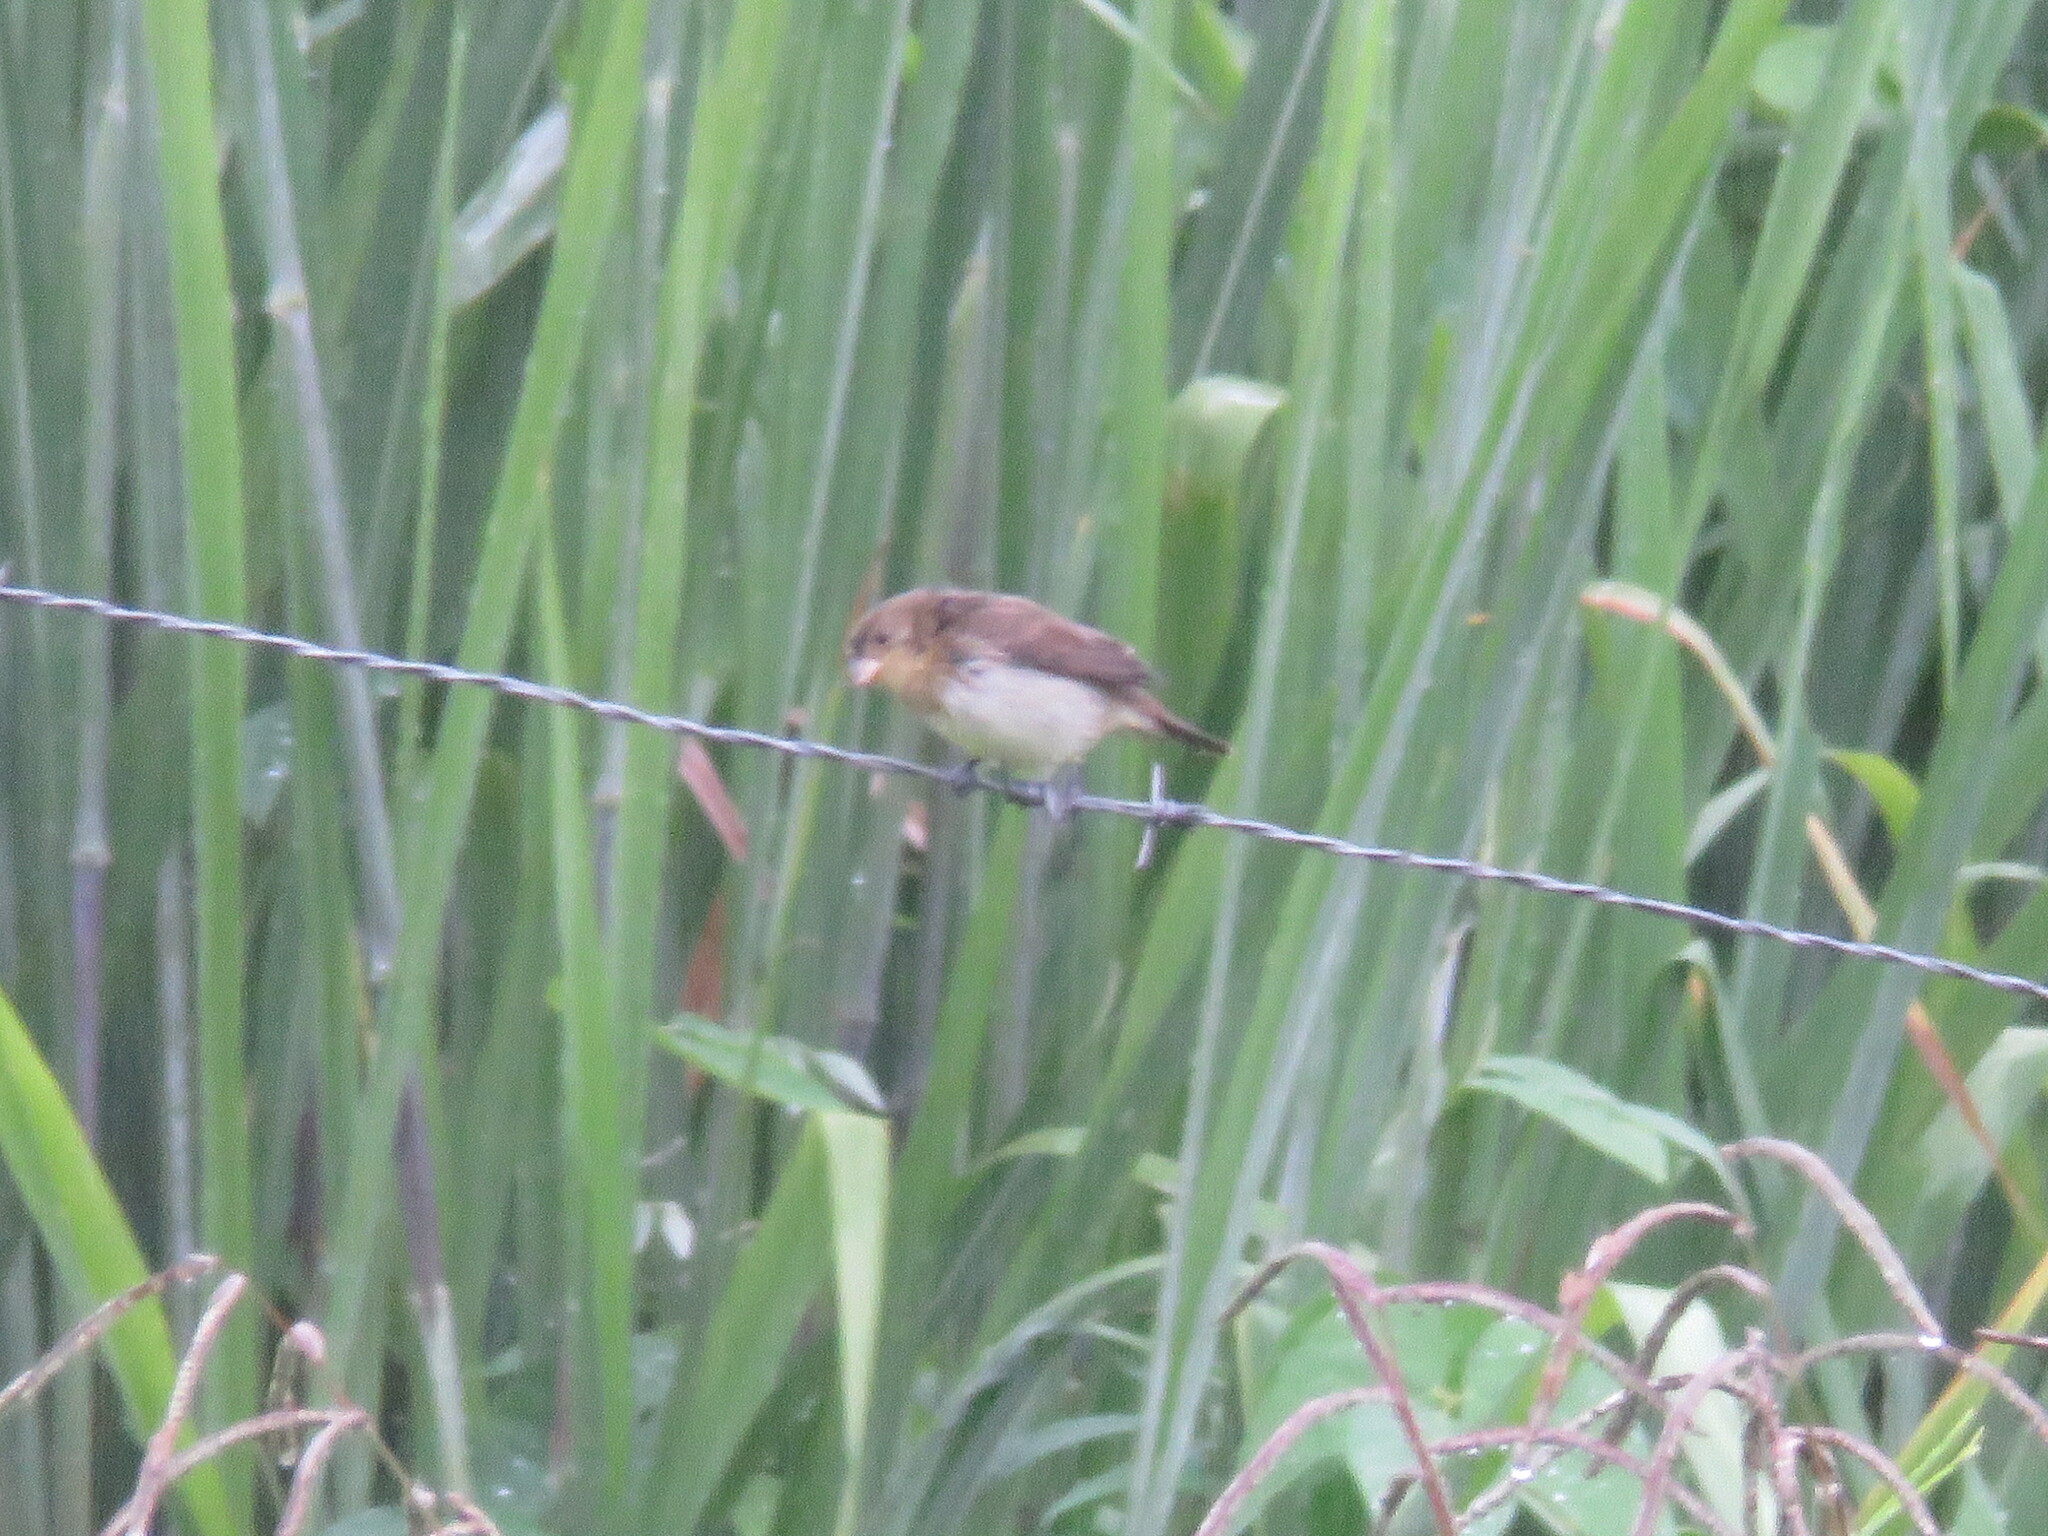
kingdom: Animalia
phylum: Chordata
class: Aves
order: Passeriformes
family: Thraupidae
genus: Sporophila
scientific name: Sporophila caerulescens
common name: Double-collared seedeater
